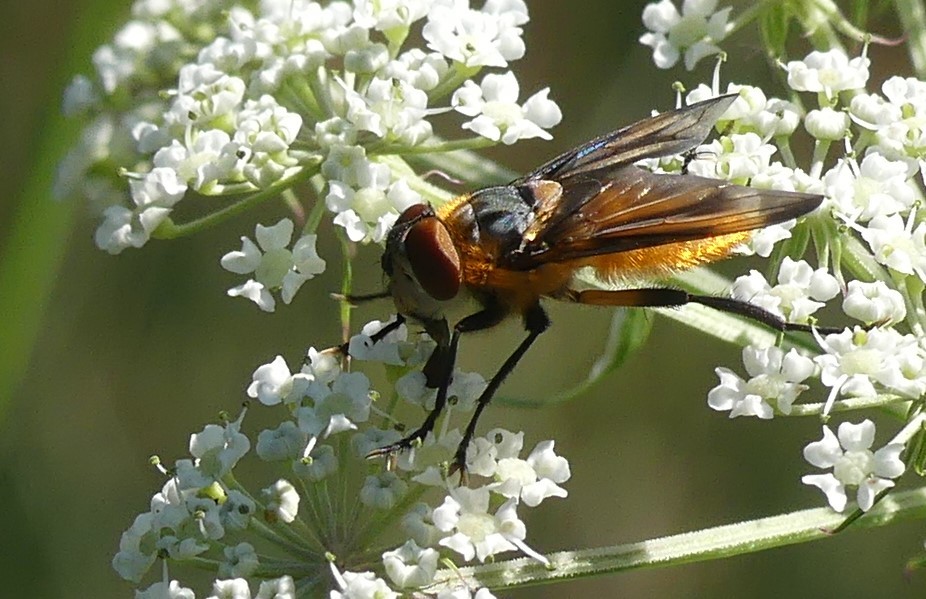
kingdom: Animalia
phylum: Arthropoda
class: Insecta
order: Diptera
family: Tachinidae
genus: Phasia
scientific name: Phasia hemiptera
